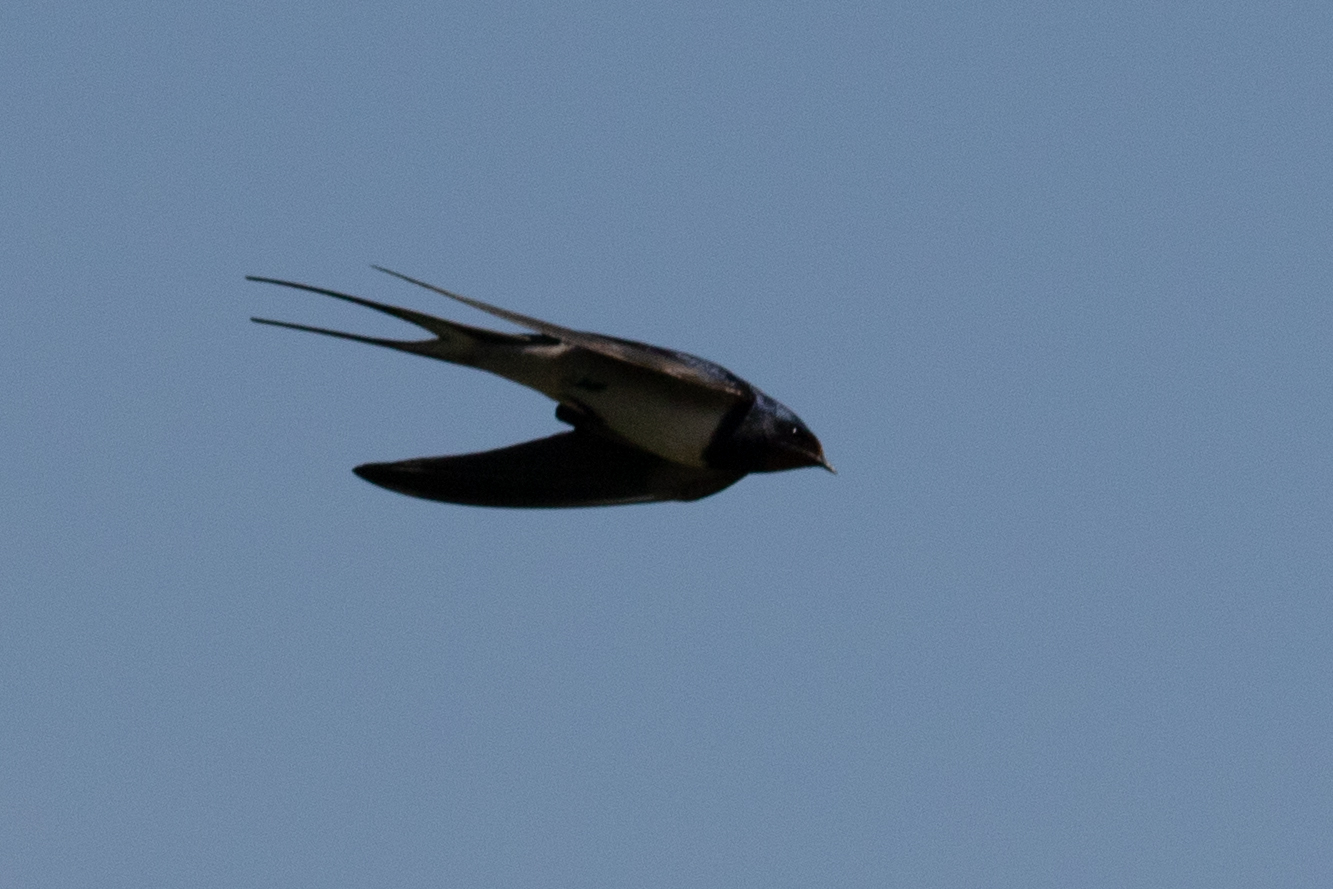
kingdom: Animalia
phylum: Chordata
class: Aves
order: Passeriformes
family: Hirundinidae
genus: Hirundo
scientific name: Hirundo rustica
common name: Barn swallow
